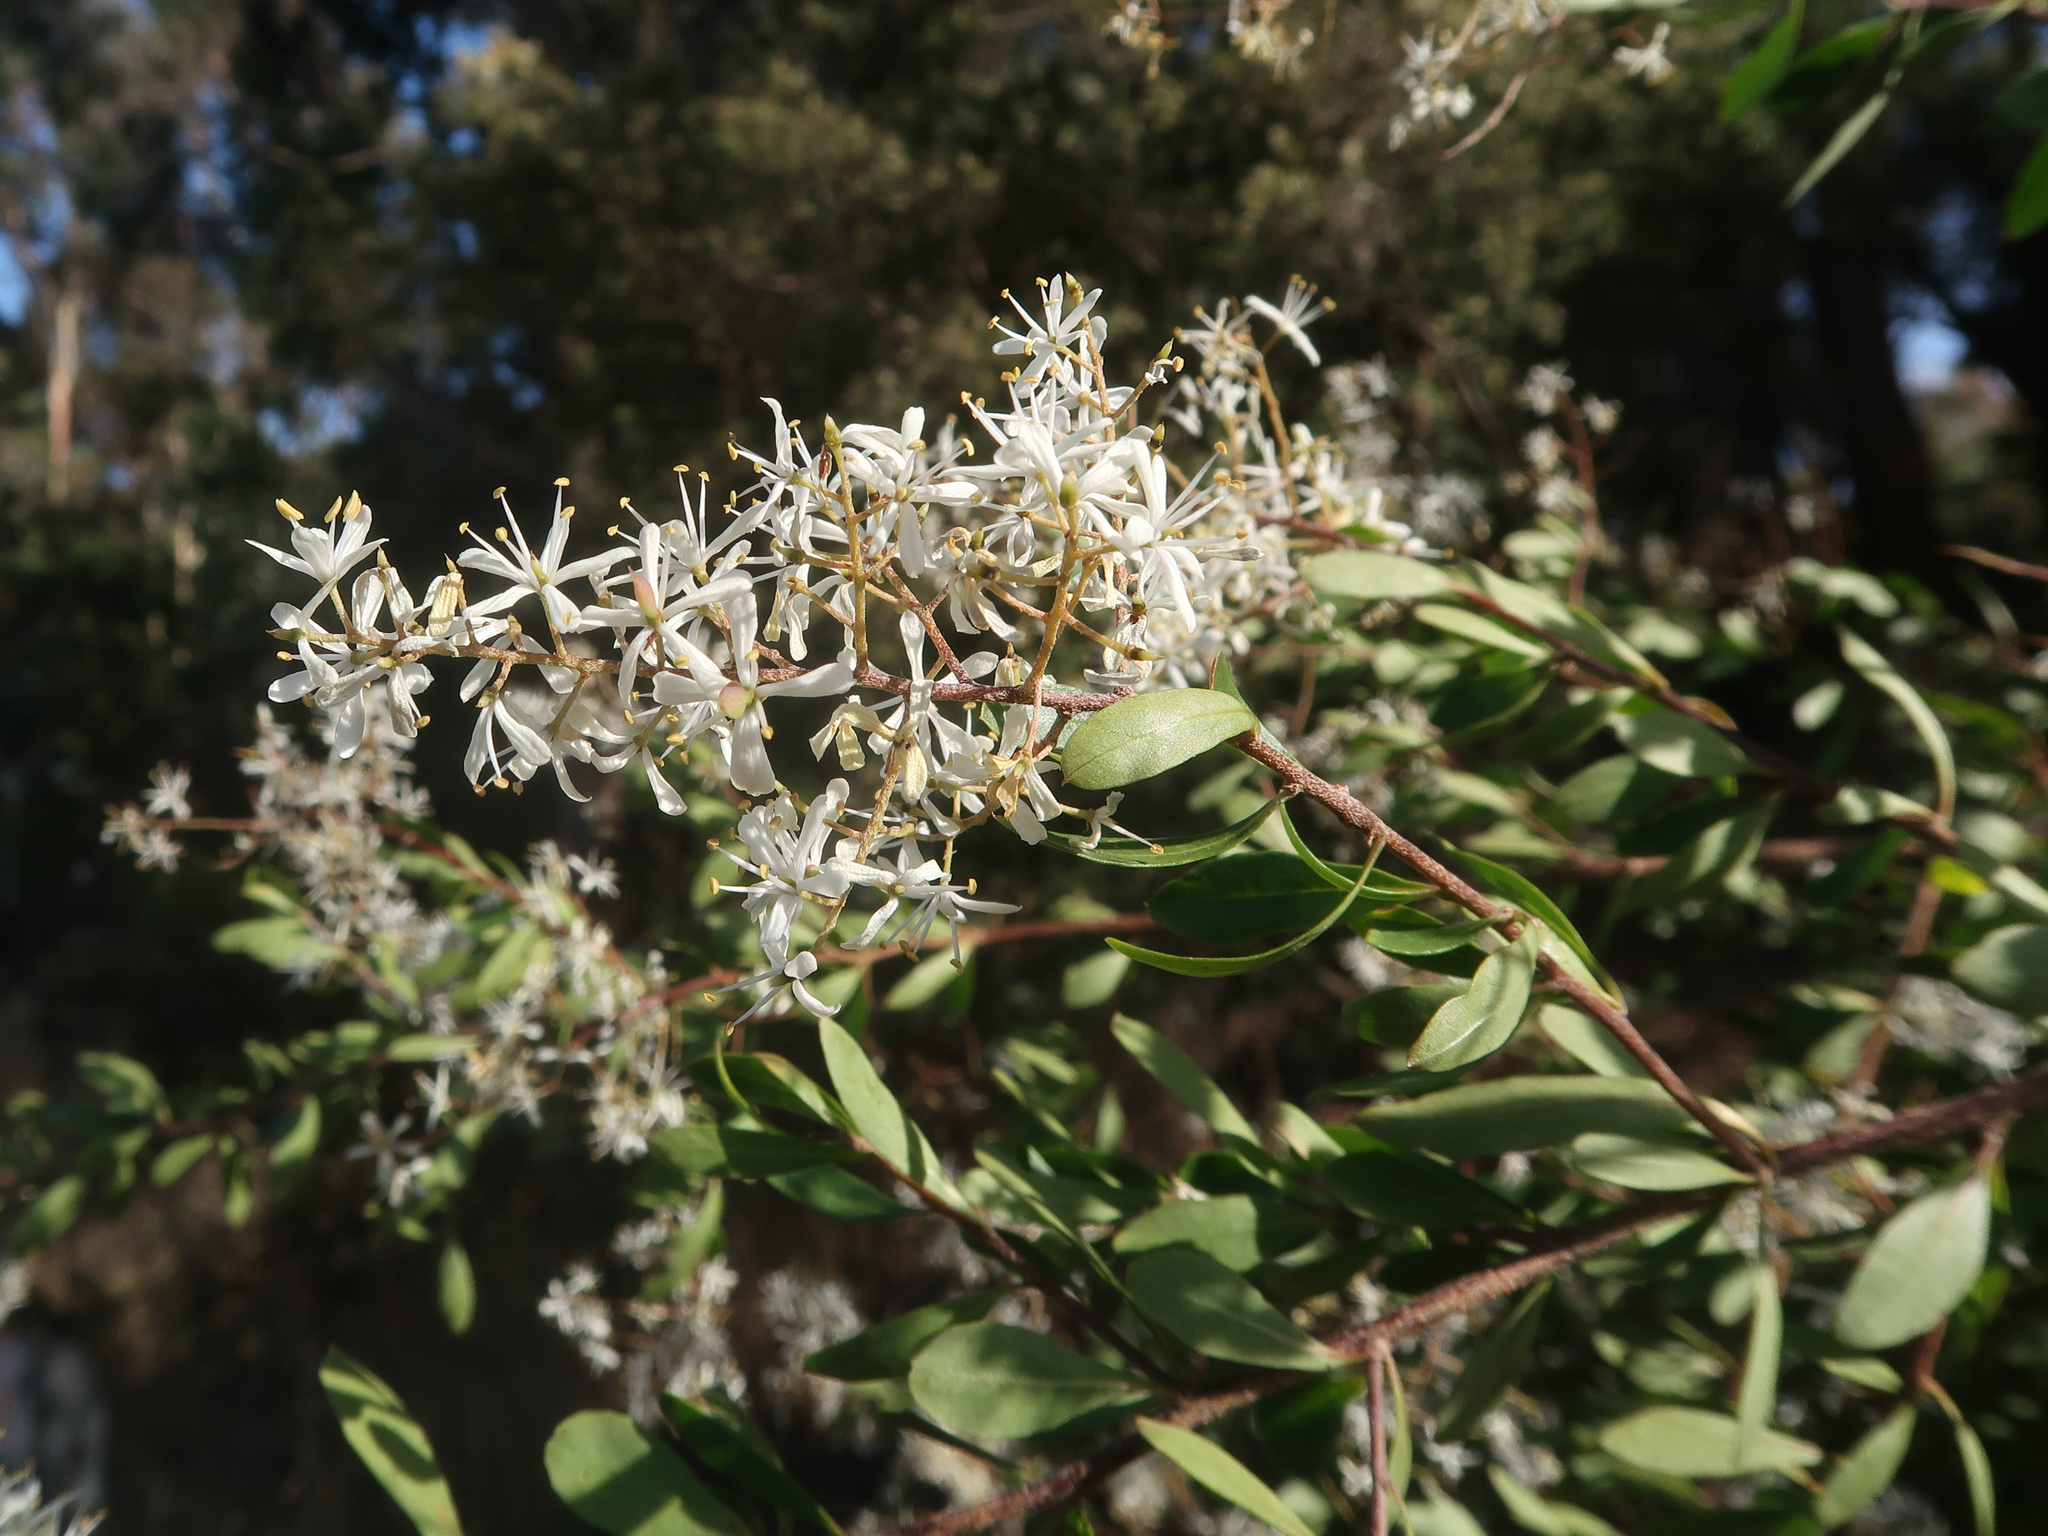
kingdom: Plantae
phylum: Tracheophyta
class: Magnoliopsida
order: Apiales
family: Pittosporaceae
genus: Bursaria
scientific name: Bursaria spinosa
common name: Australian blackthorn
